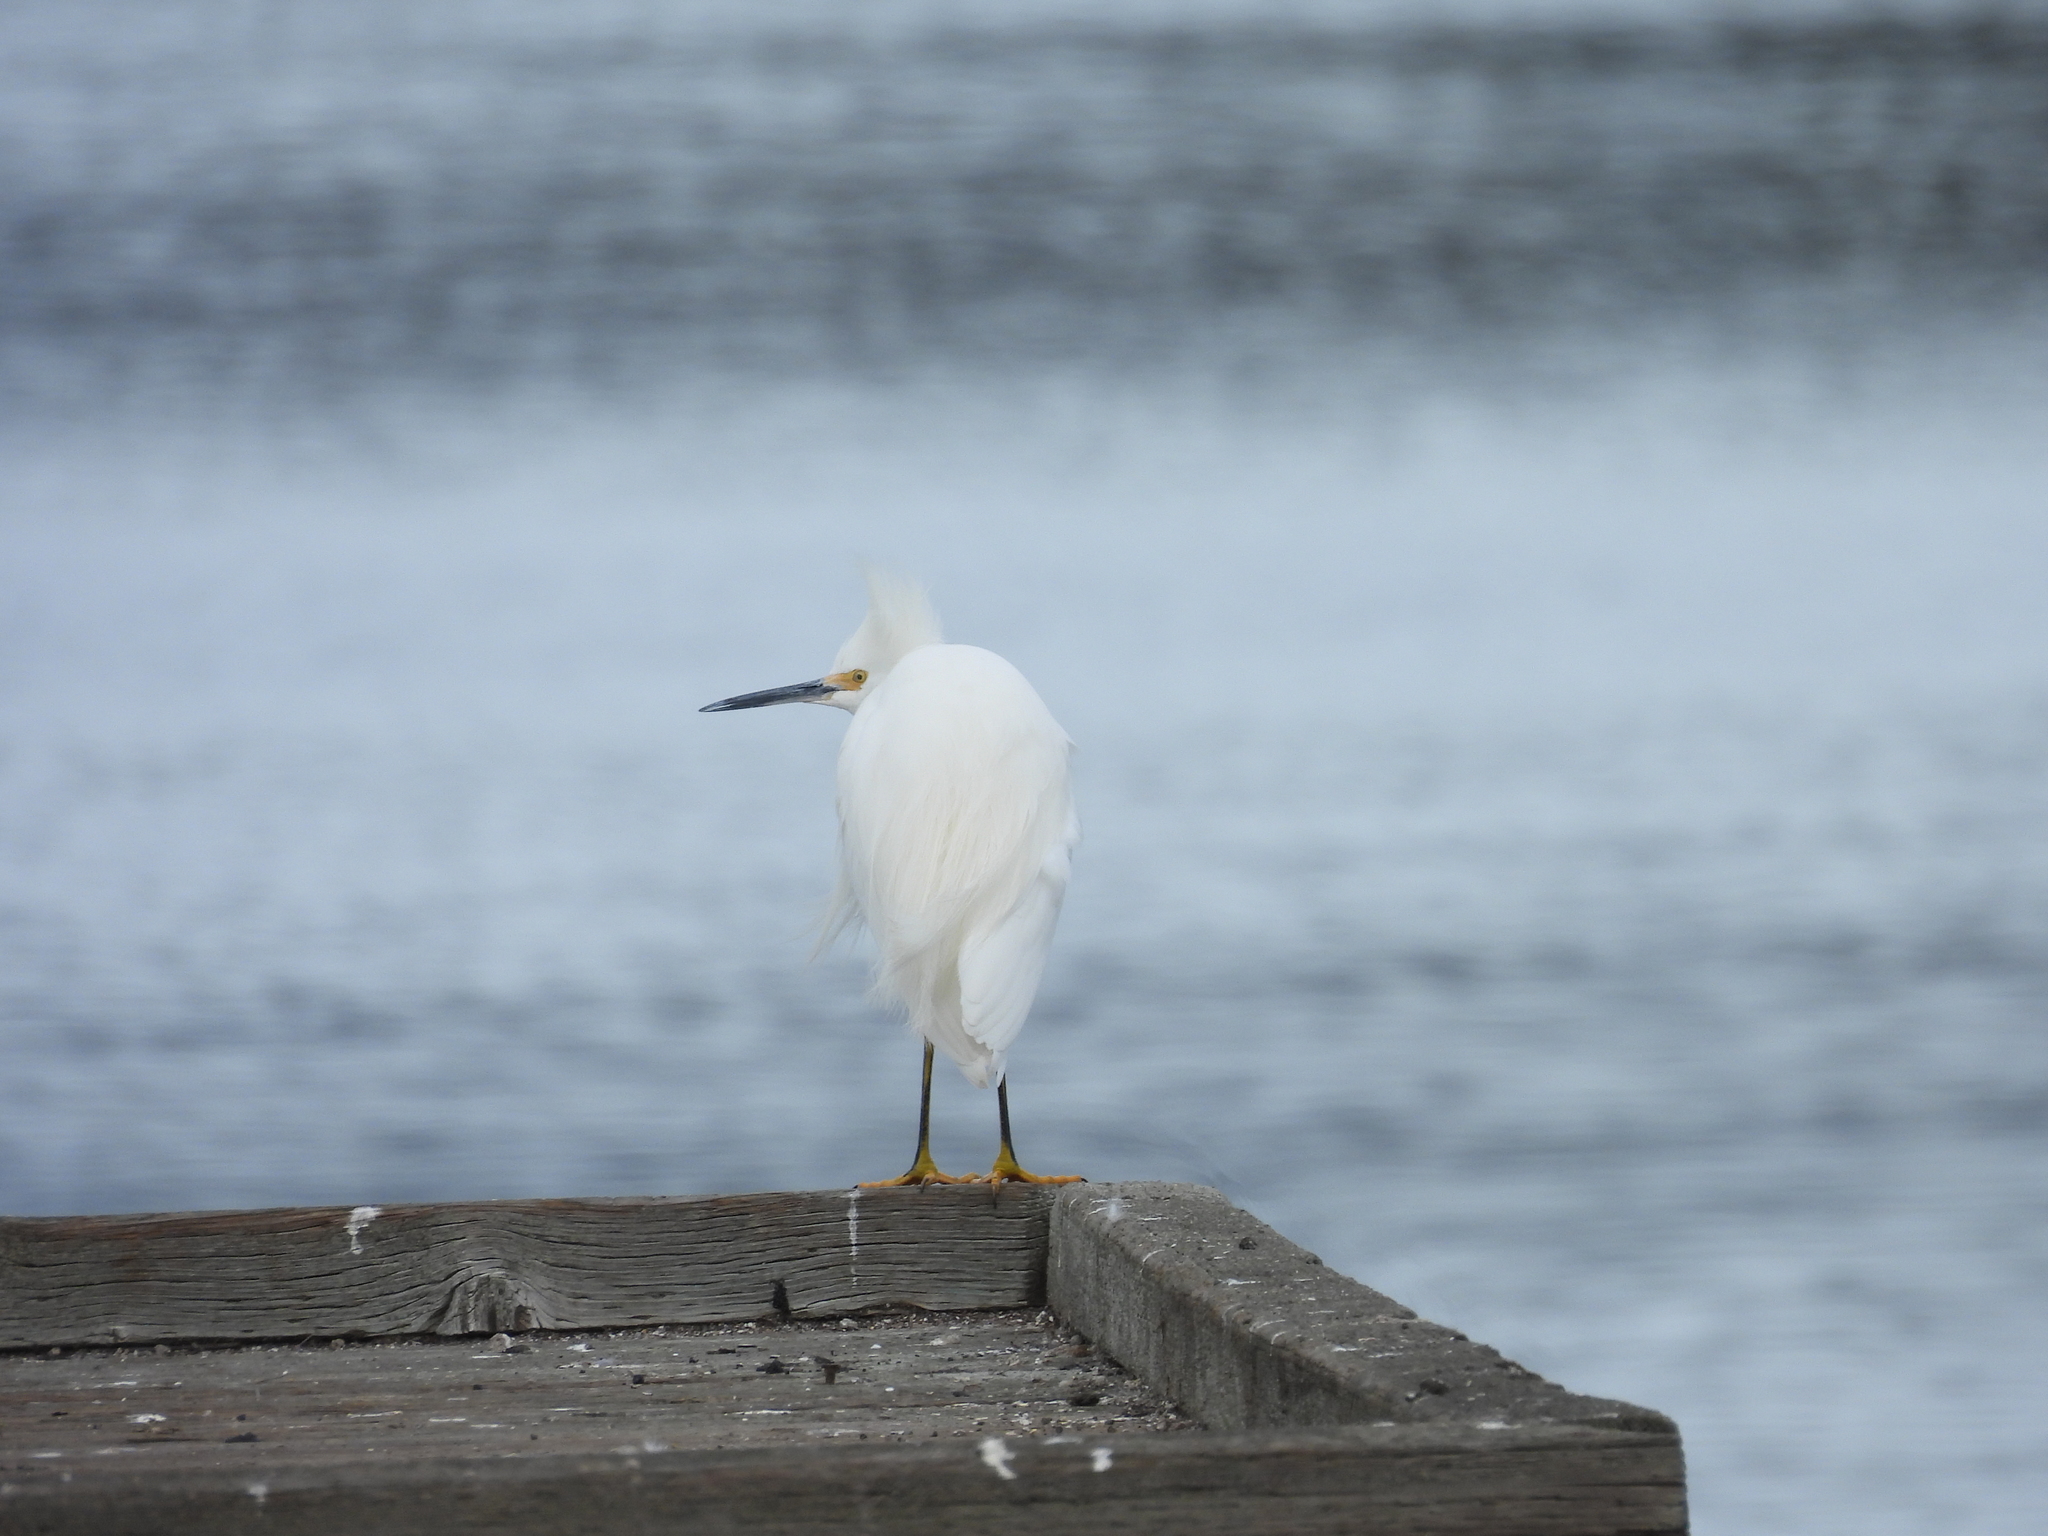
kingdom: Animalia
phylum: Chordata
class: Aves
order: Pelecaniformes
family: Ardeidae
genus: Egretta
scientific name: Egretta thula
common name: Snowy egret
